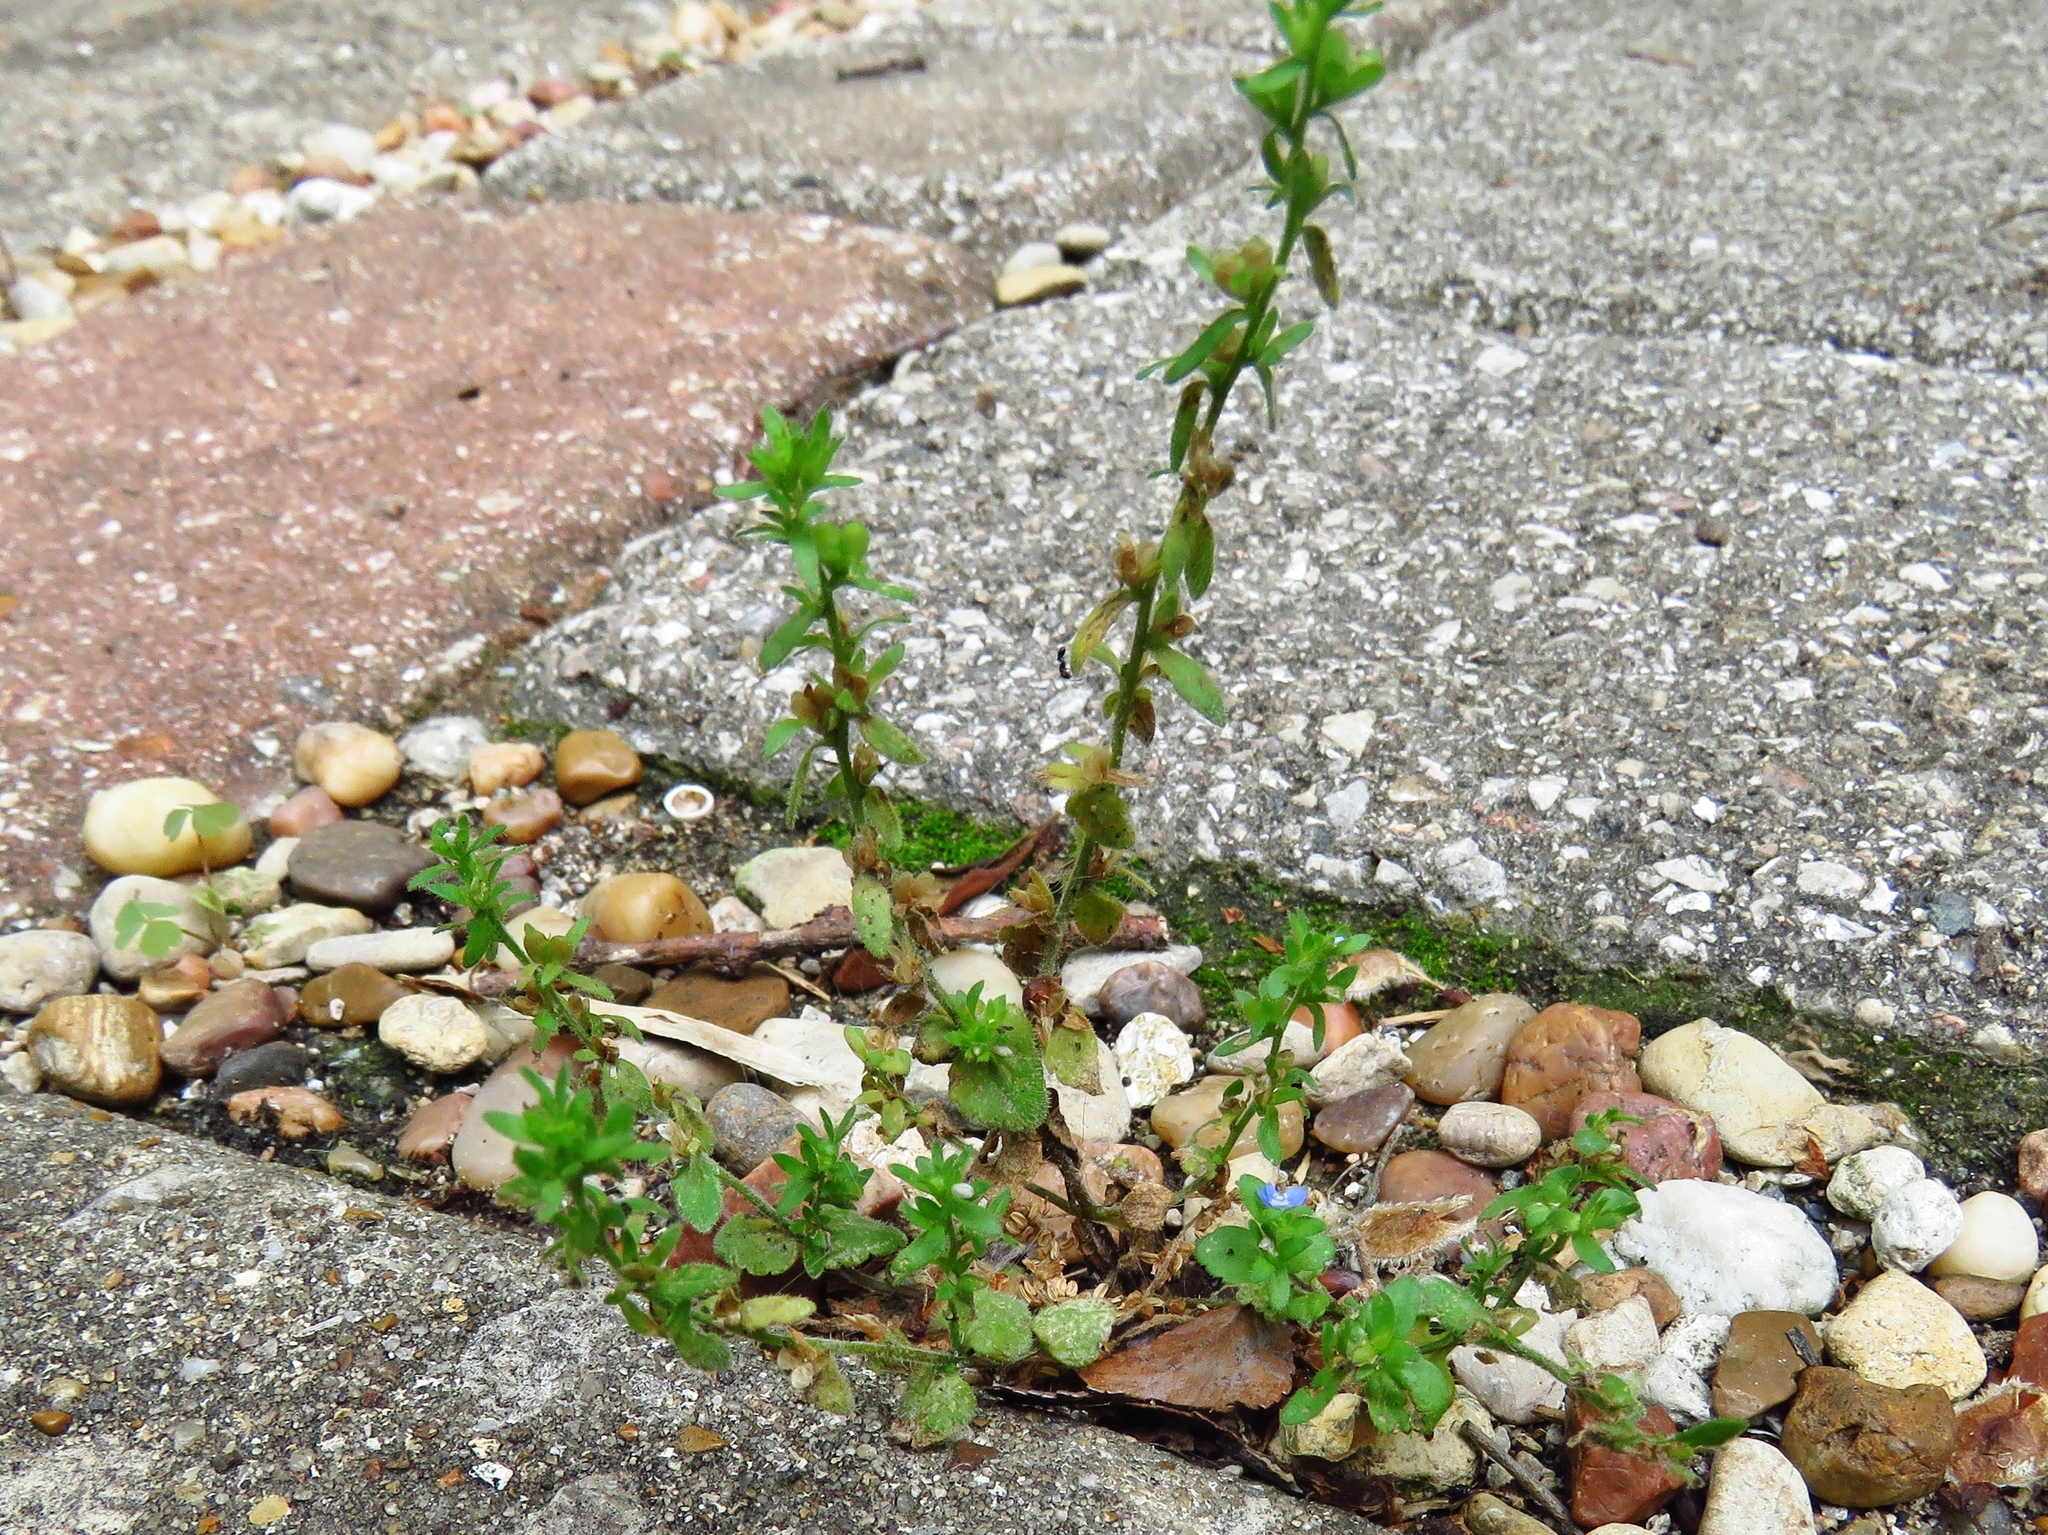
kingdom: Plantae
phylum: Tracheophyta
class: Magnoliopsida
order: Lamiales
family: Plantaginaceae
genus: Veronica
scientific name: Veronica arvensis
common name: Corn speedwell
